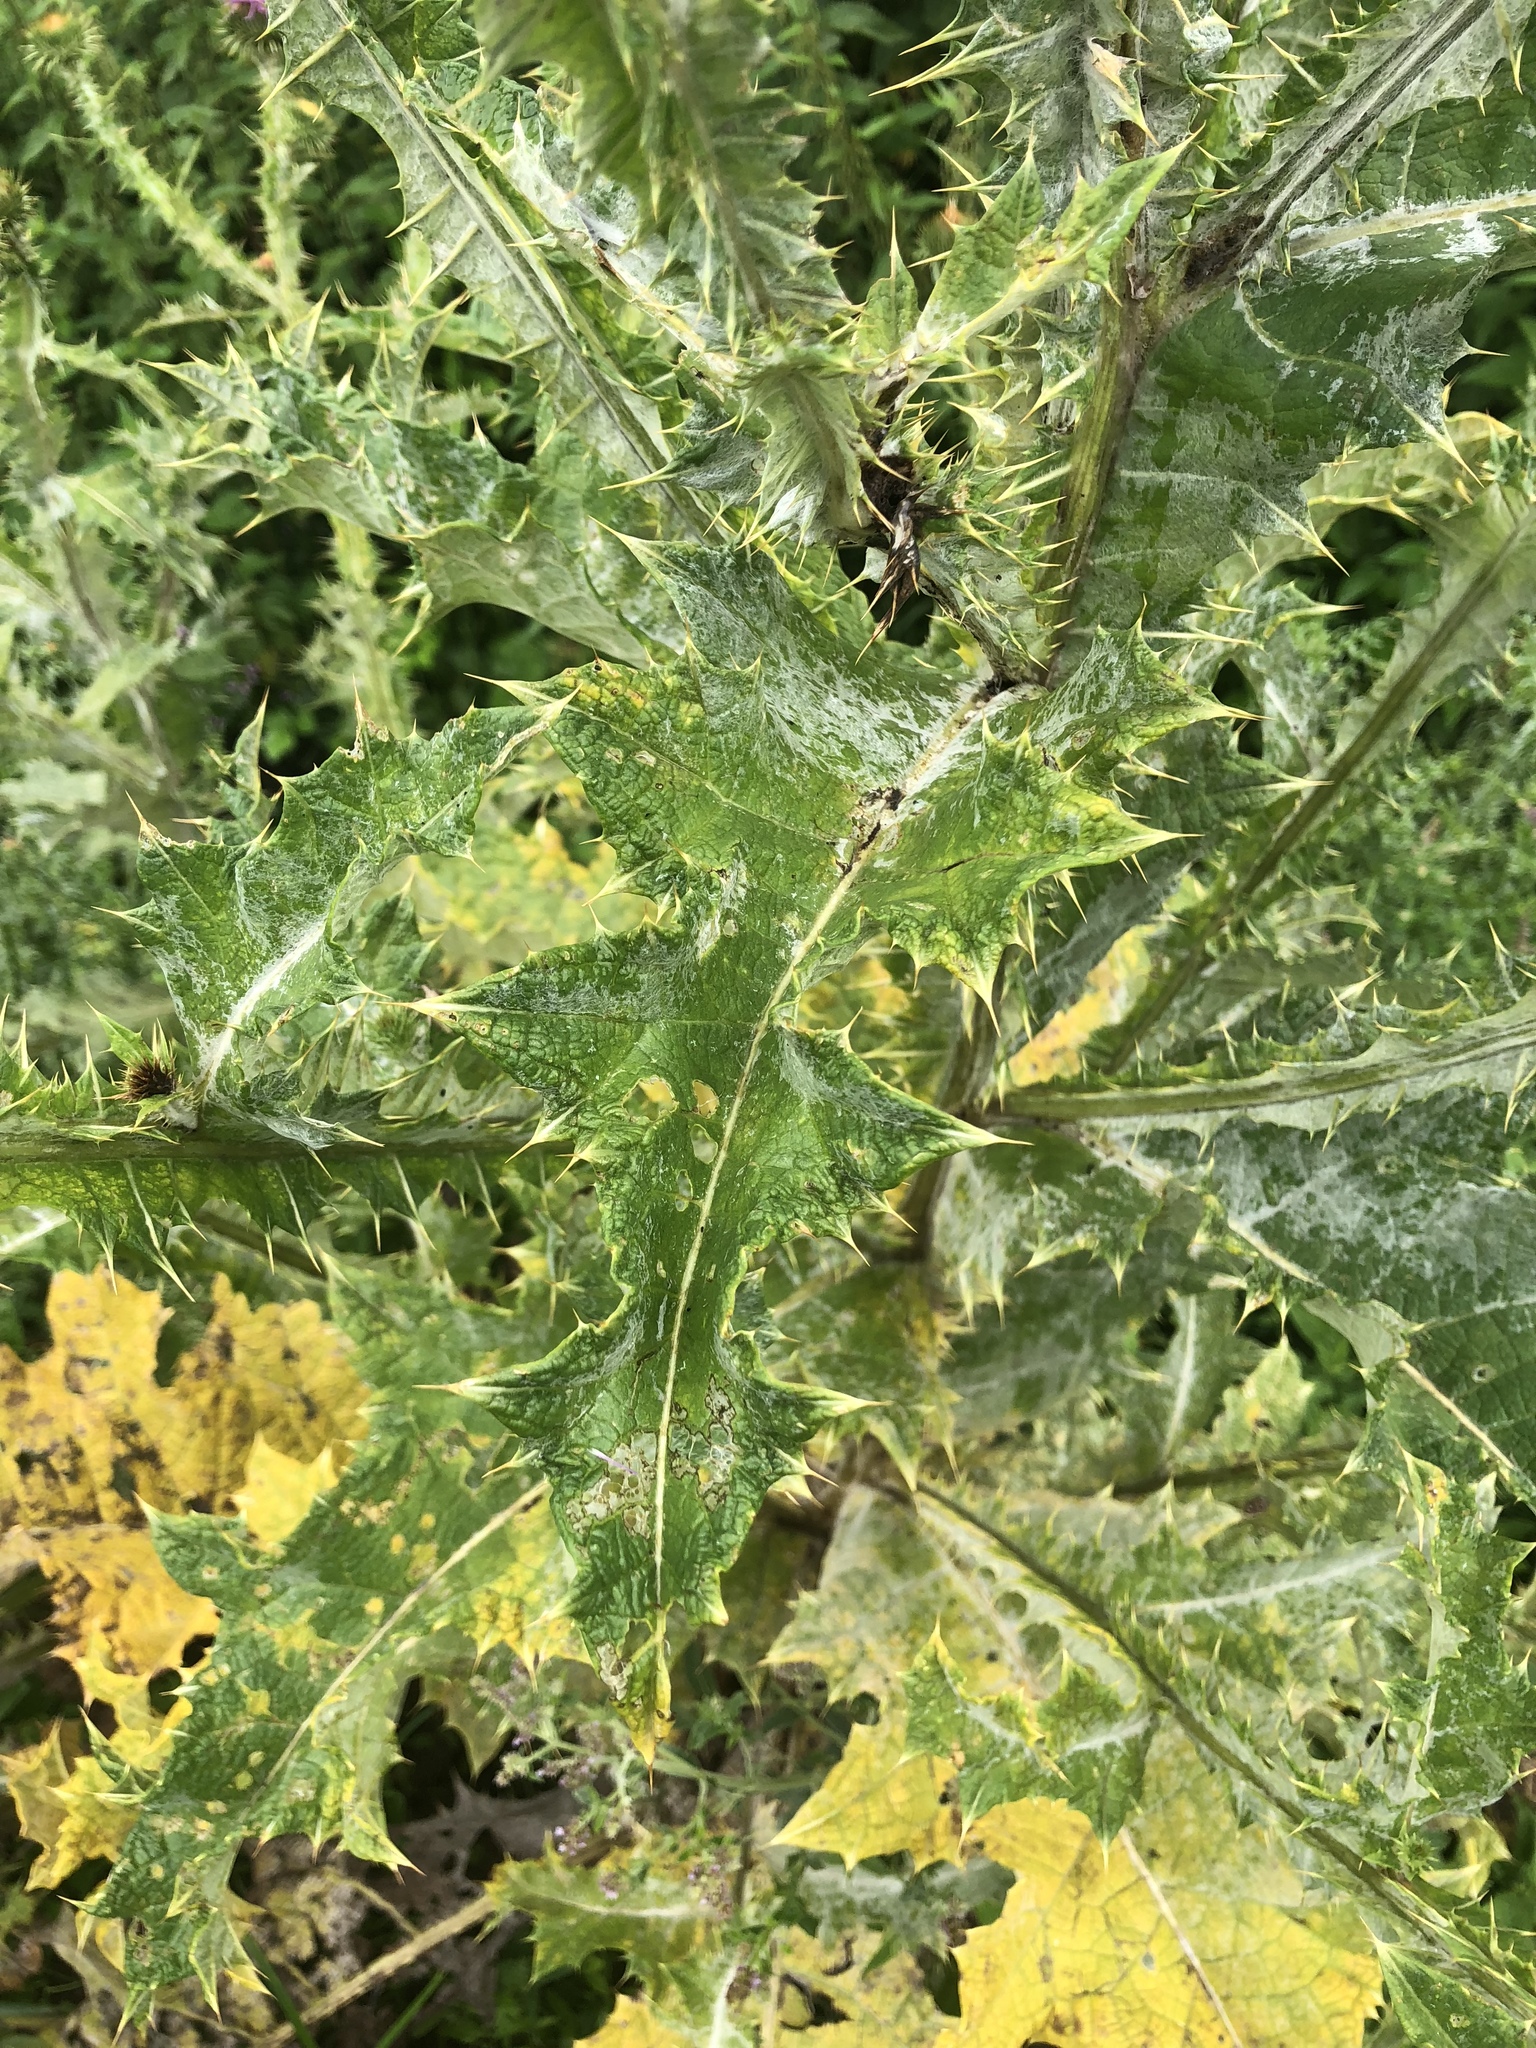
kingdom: Plantae
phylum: Tracheophyta
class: Magnoliopsida
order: Asterales
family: Asteraceae
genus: Onopordum
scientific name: Onopordum acanthium
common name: Scotch thistle
